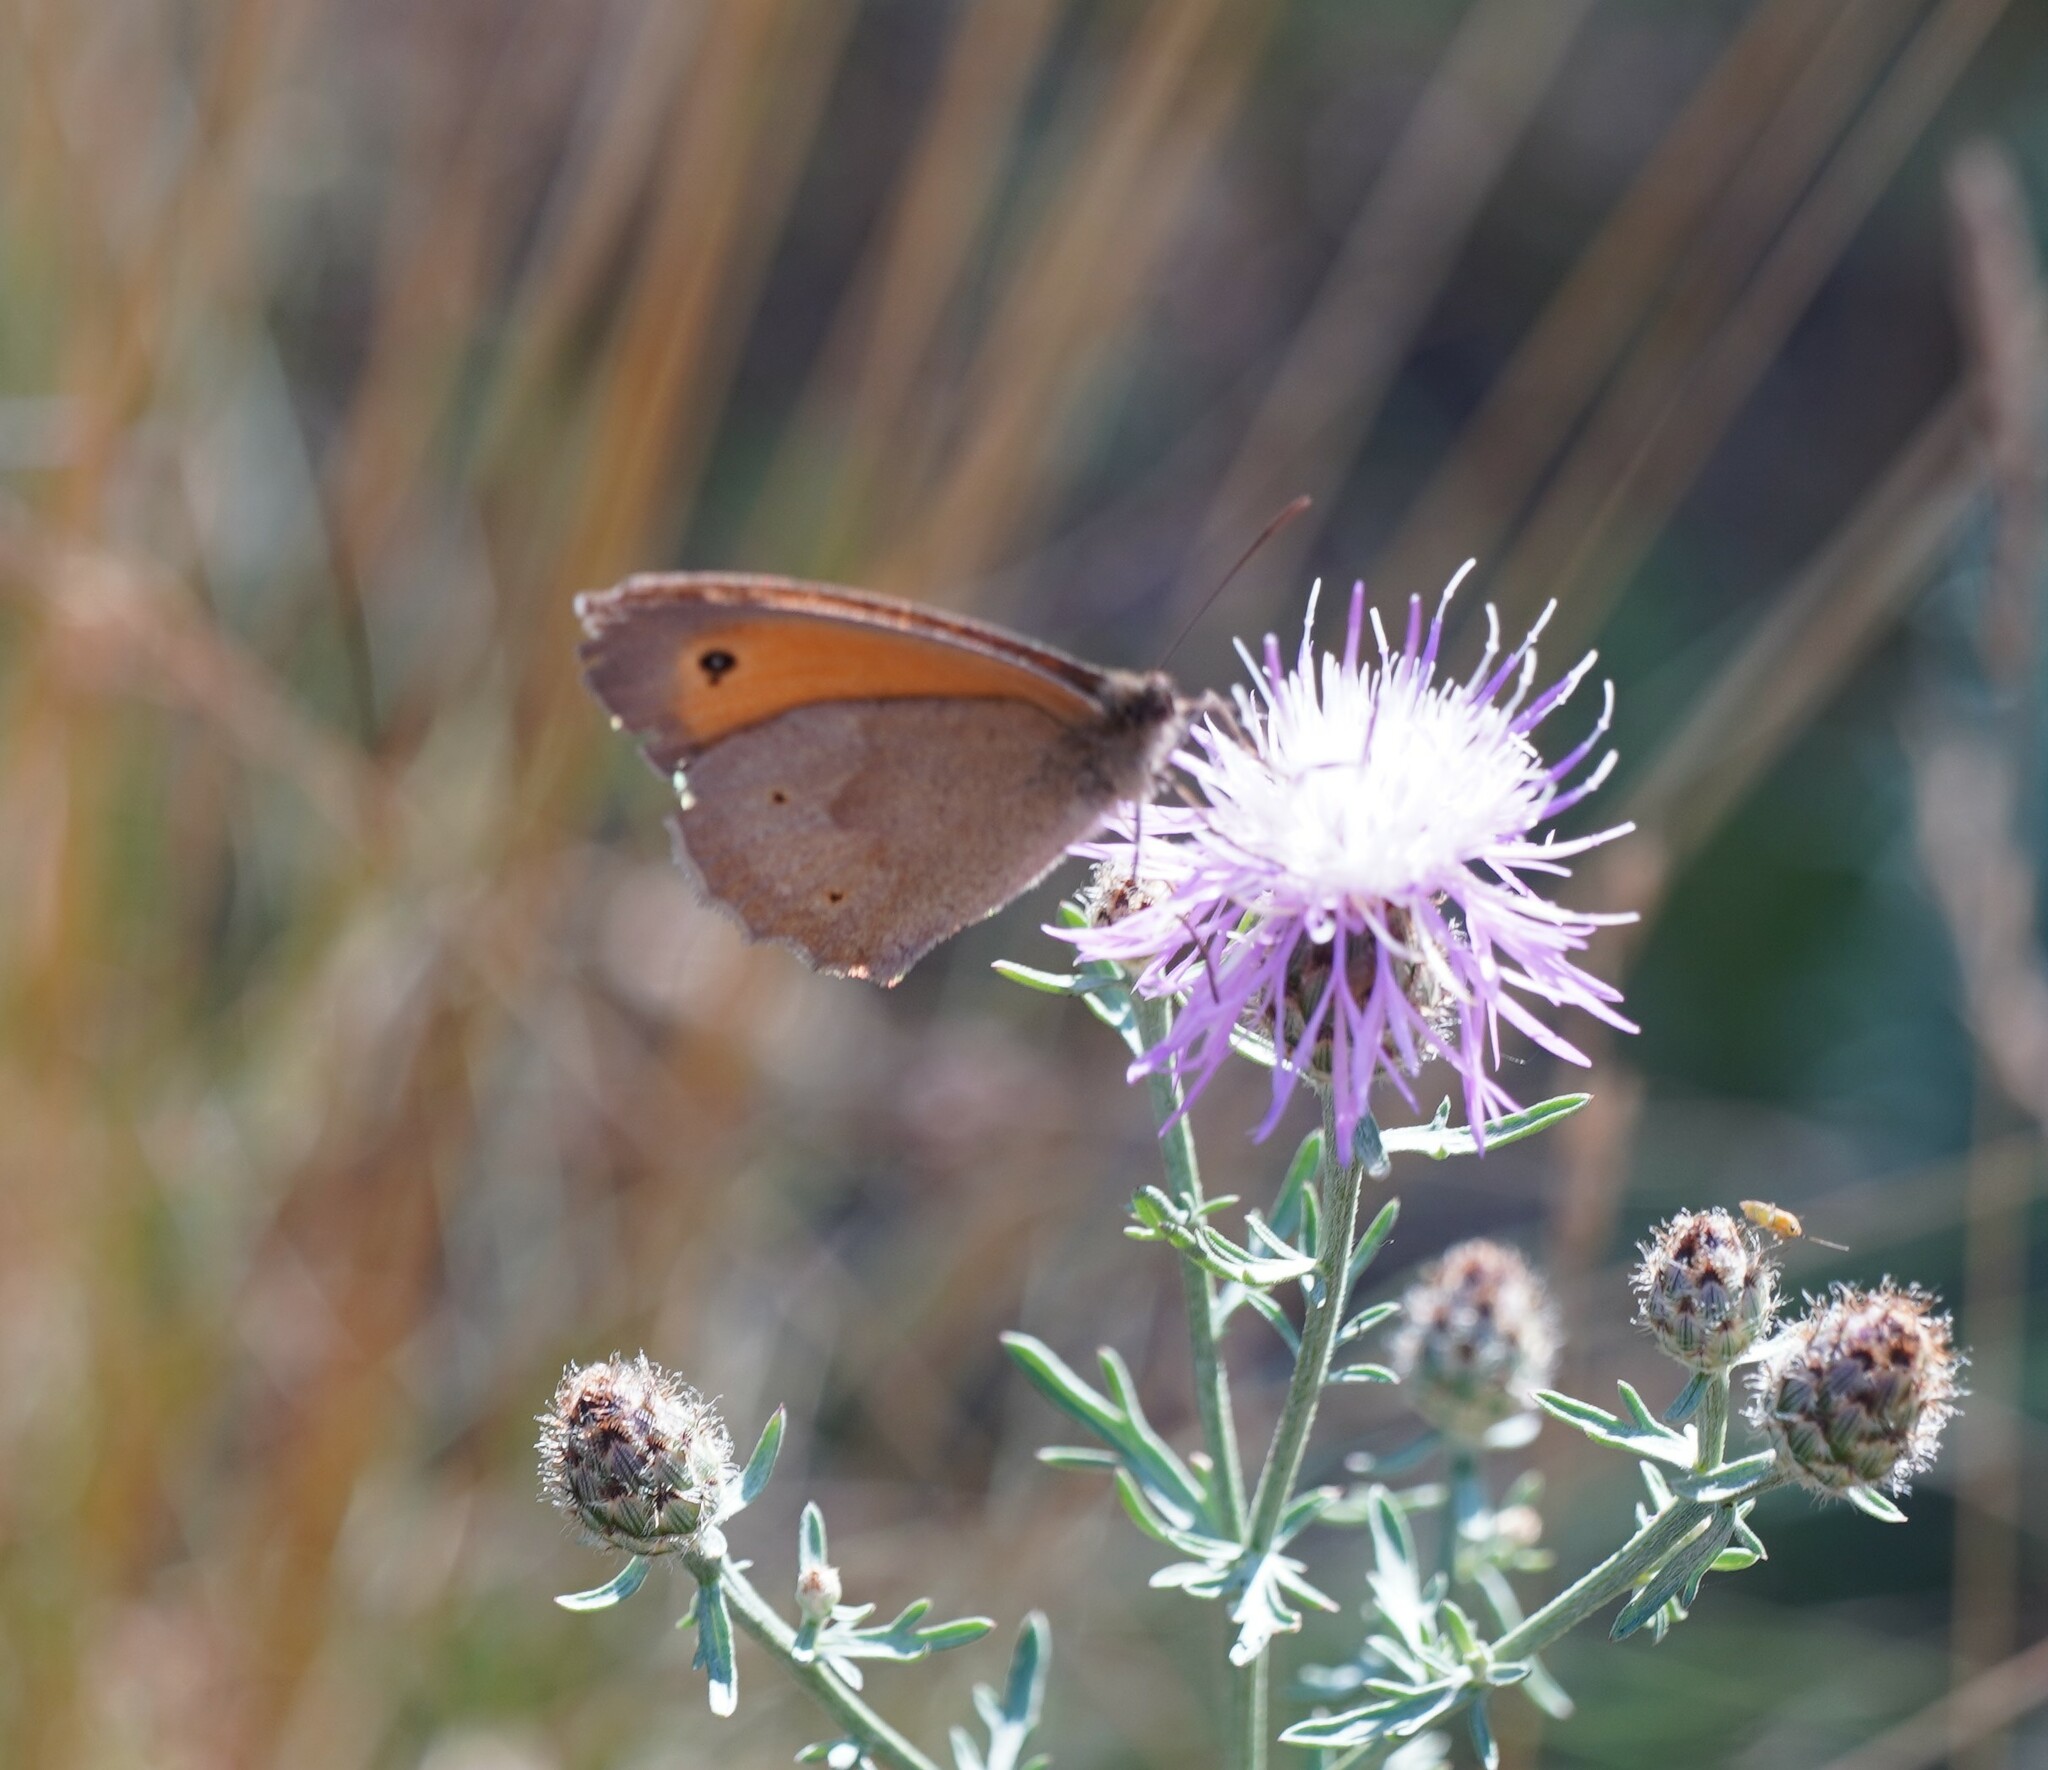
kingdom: Animalia
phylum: Arthropoda
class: Insecta
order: Lepidoptera
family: Nymphalidae
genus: Maniola
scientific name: Maniola jurtina
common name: Meadow brown
